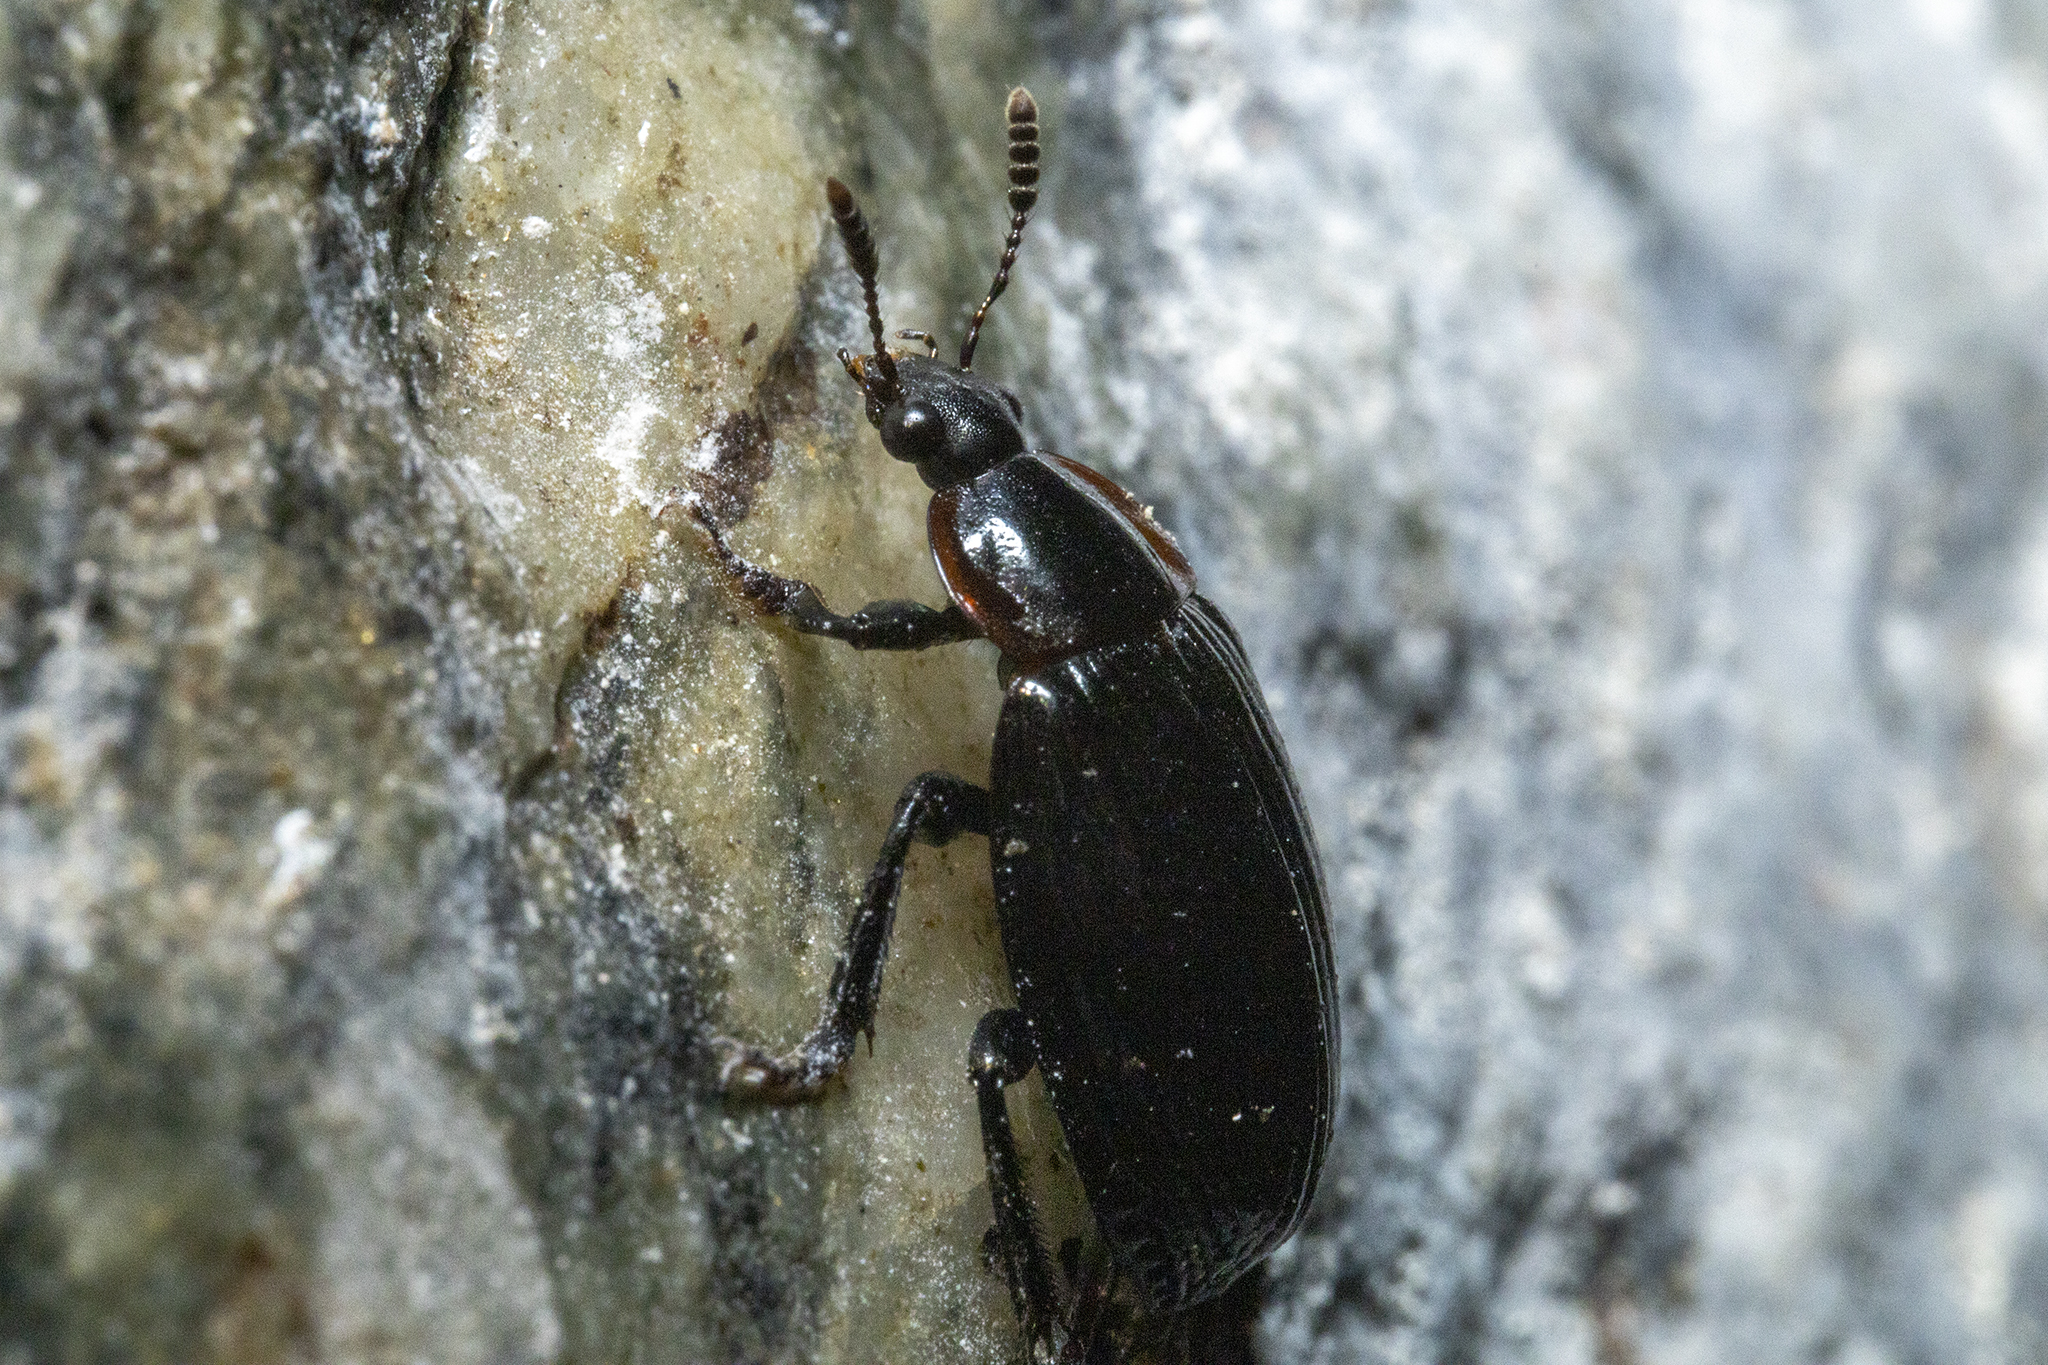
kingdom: Animalia
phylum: Arthropoda
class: Insecta
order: Coleoptera
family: Agyrtidae
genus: Zeanecrophilus
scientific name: Zeanecrophilus prolongatus
